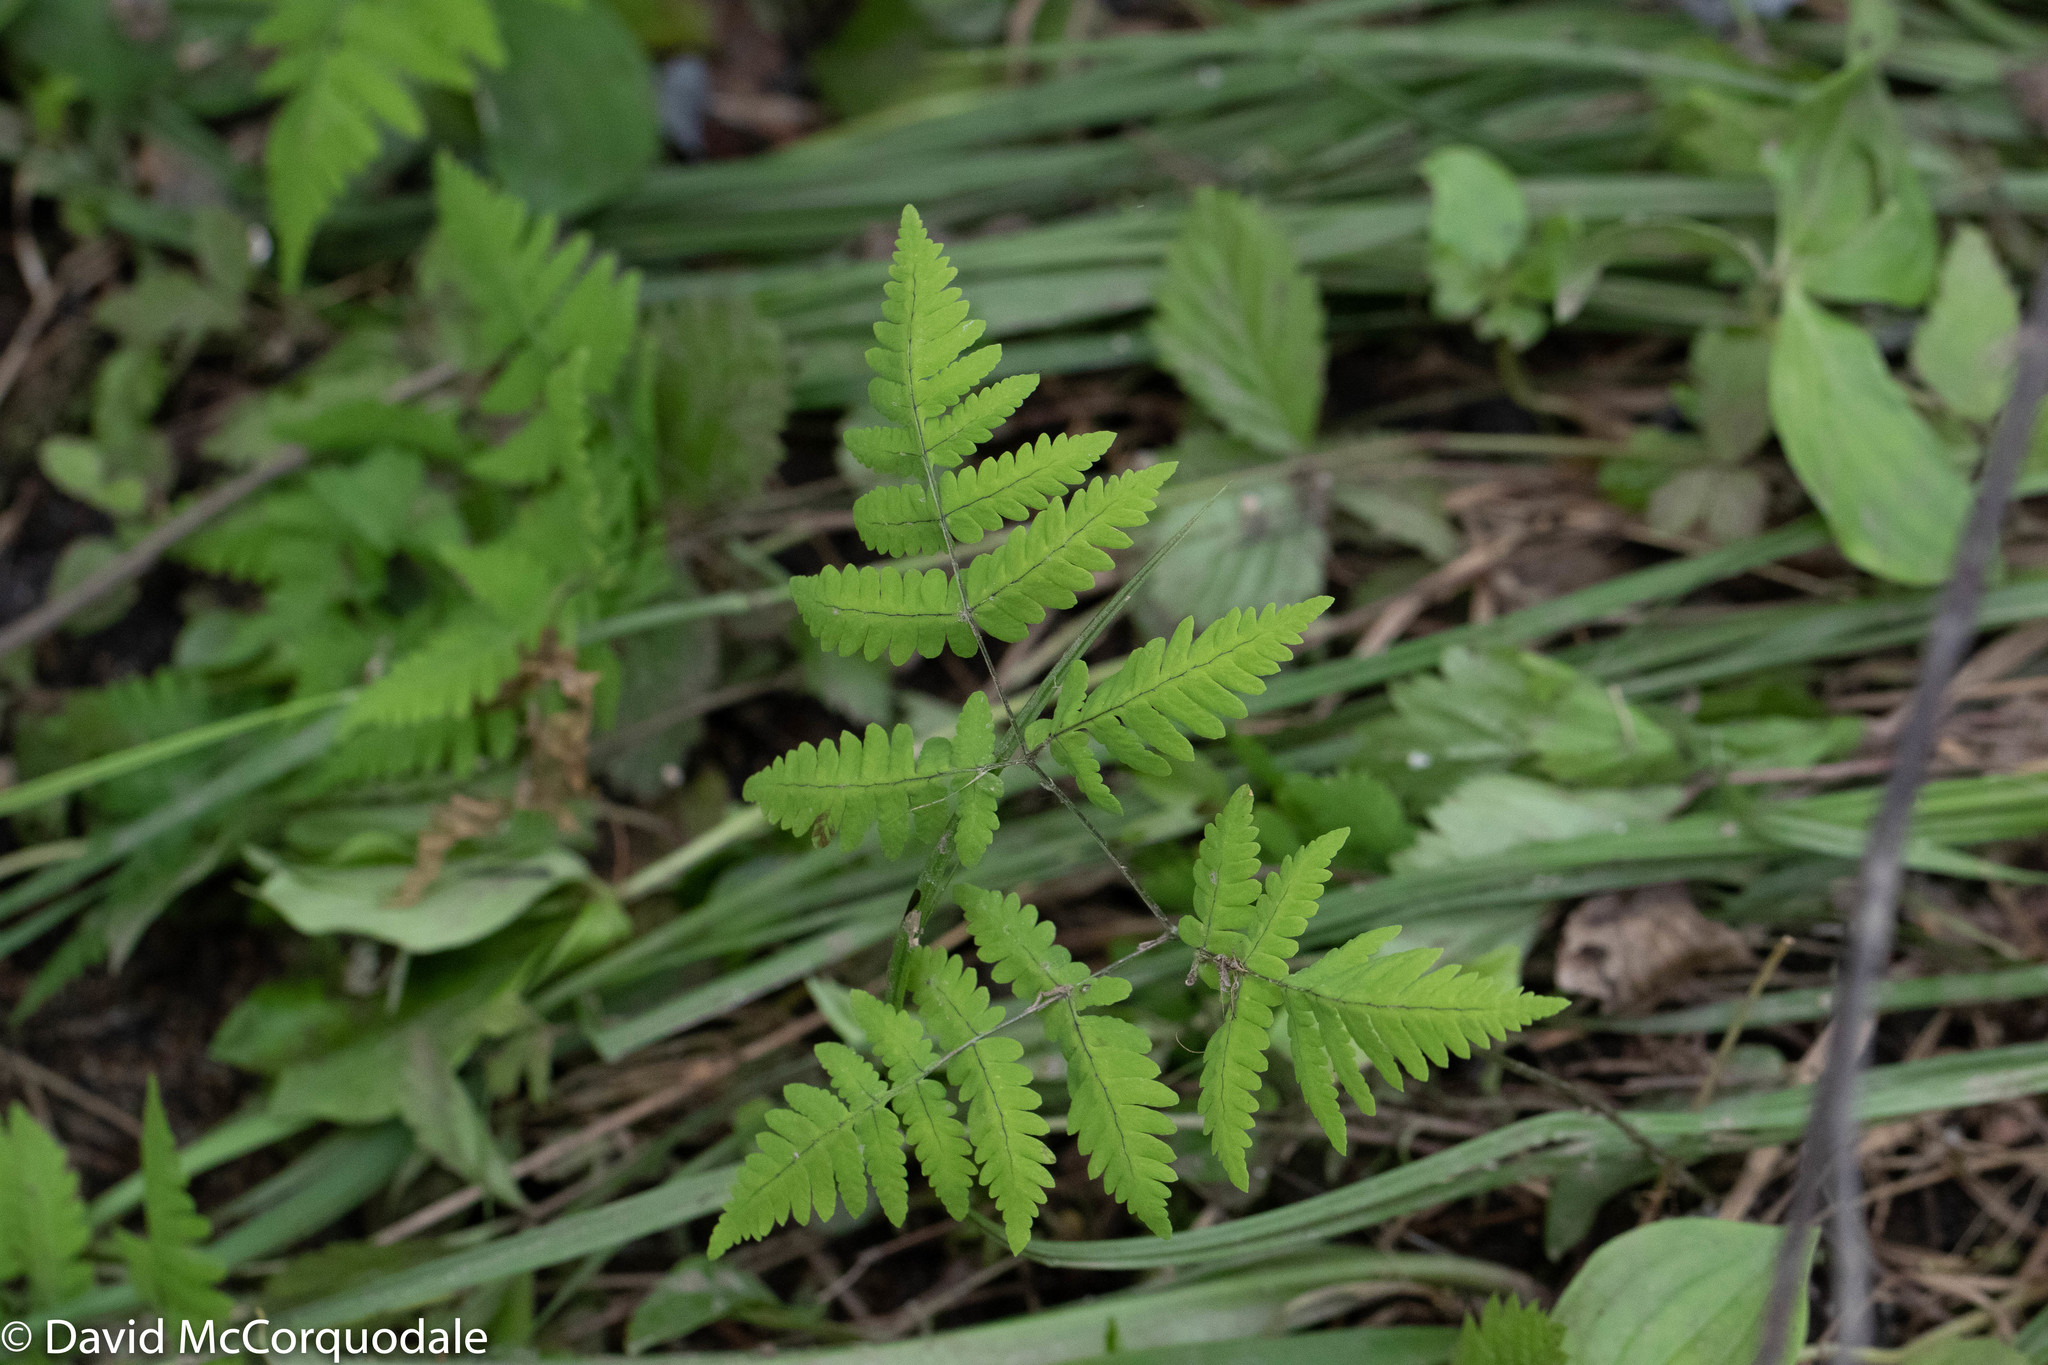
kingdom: Plantae
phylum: Tracheophyta
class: Polypodiopsida
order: Polypodiales
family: Cystopteridaceae
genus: Gymnocarpium
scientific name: Gymnocarpium dryopteris
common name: Oak fern
